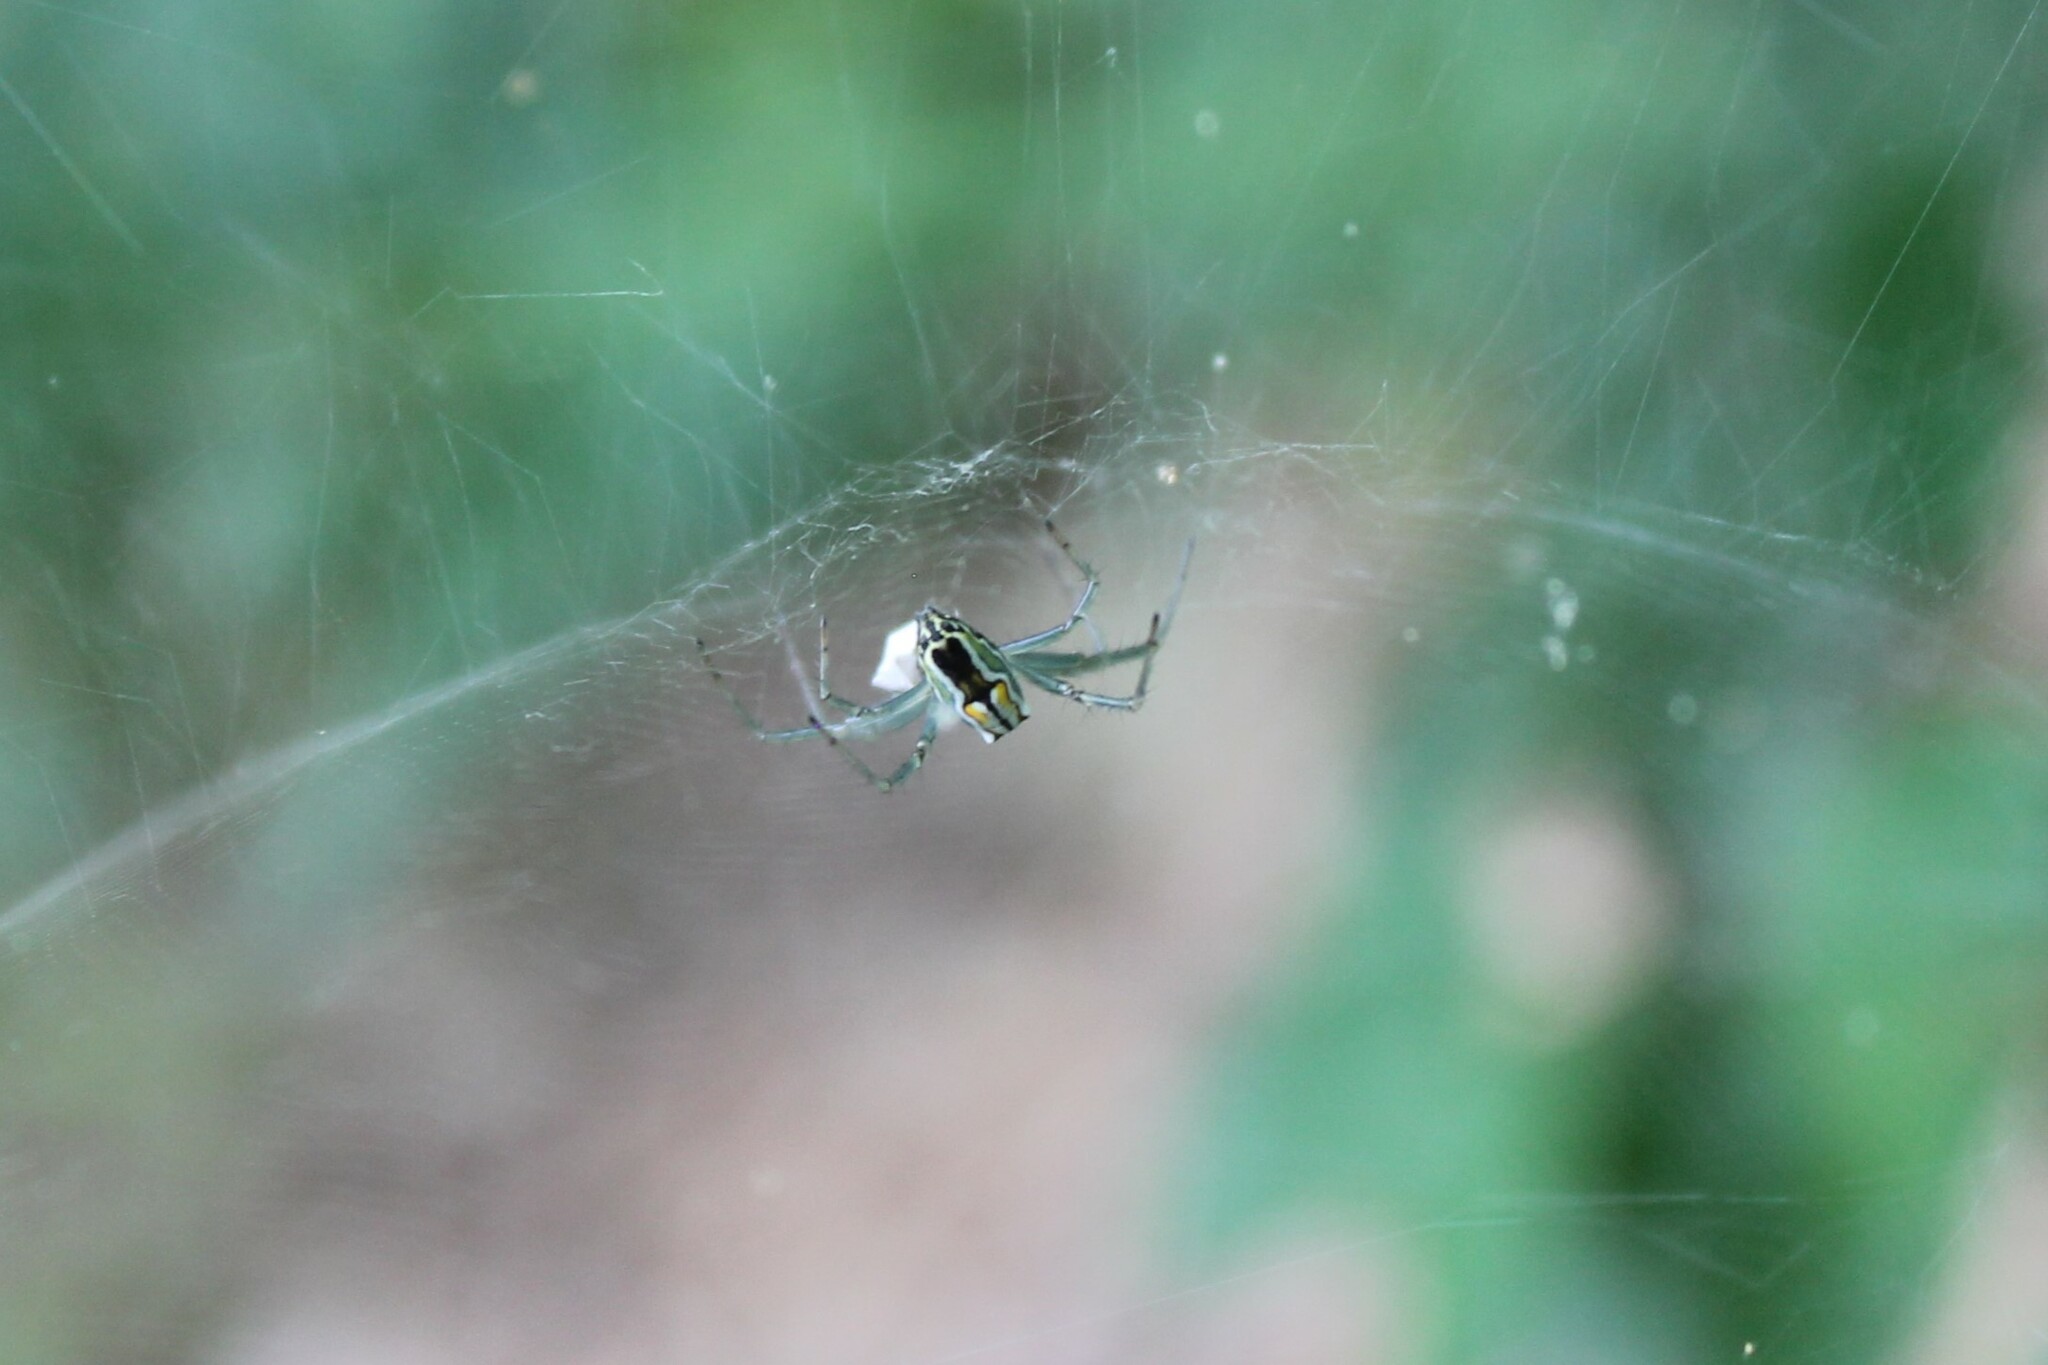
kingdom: Animalia
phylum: Arthropoda
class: Arachnida
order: Araneae
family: Araneidae
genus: Mecynogea
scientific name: Mecynogea lemniscata
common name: Orb weavers
